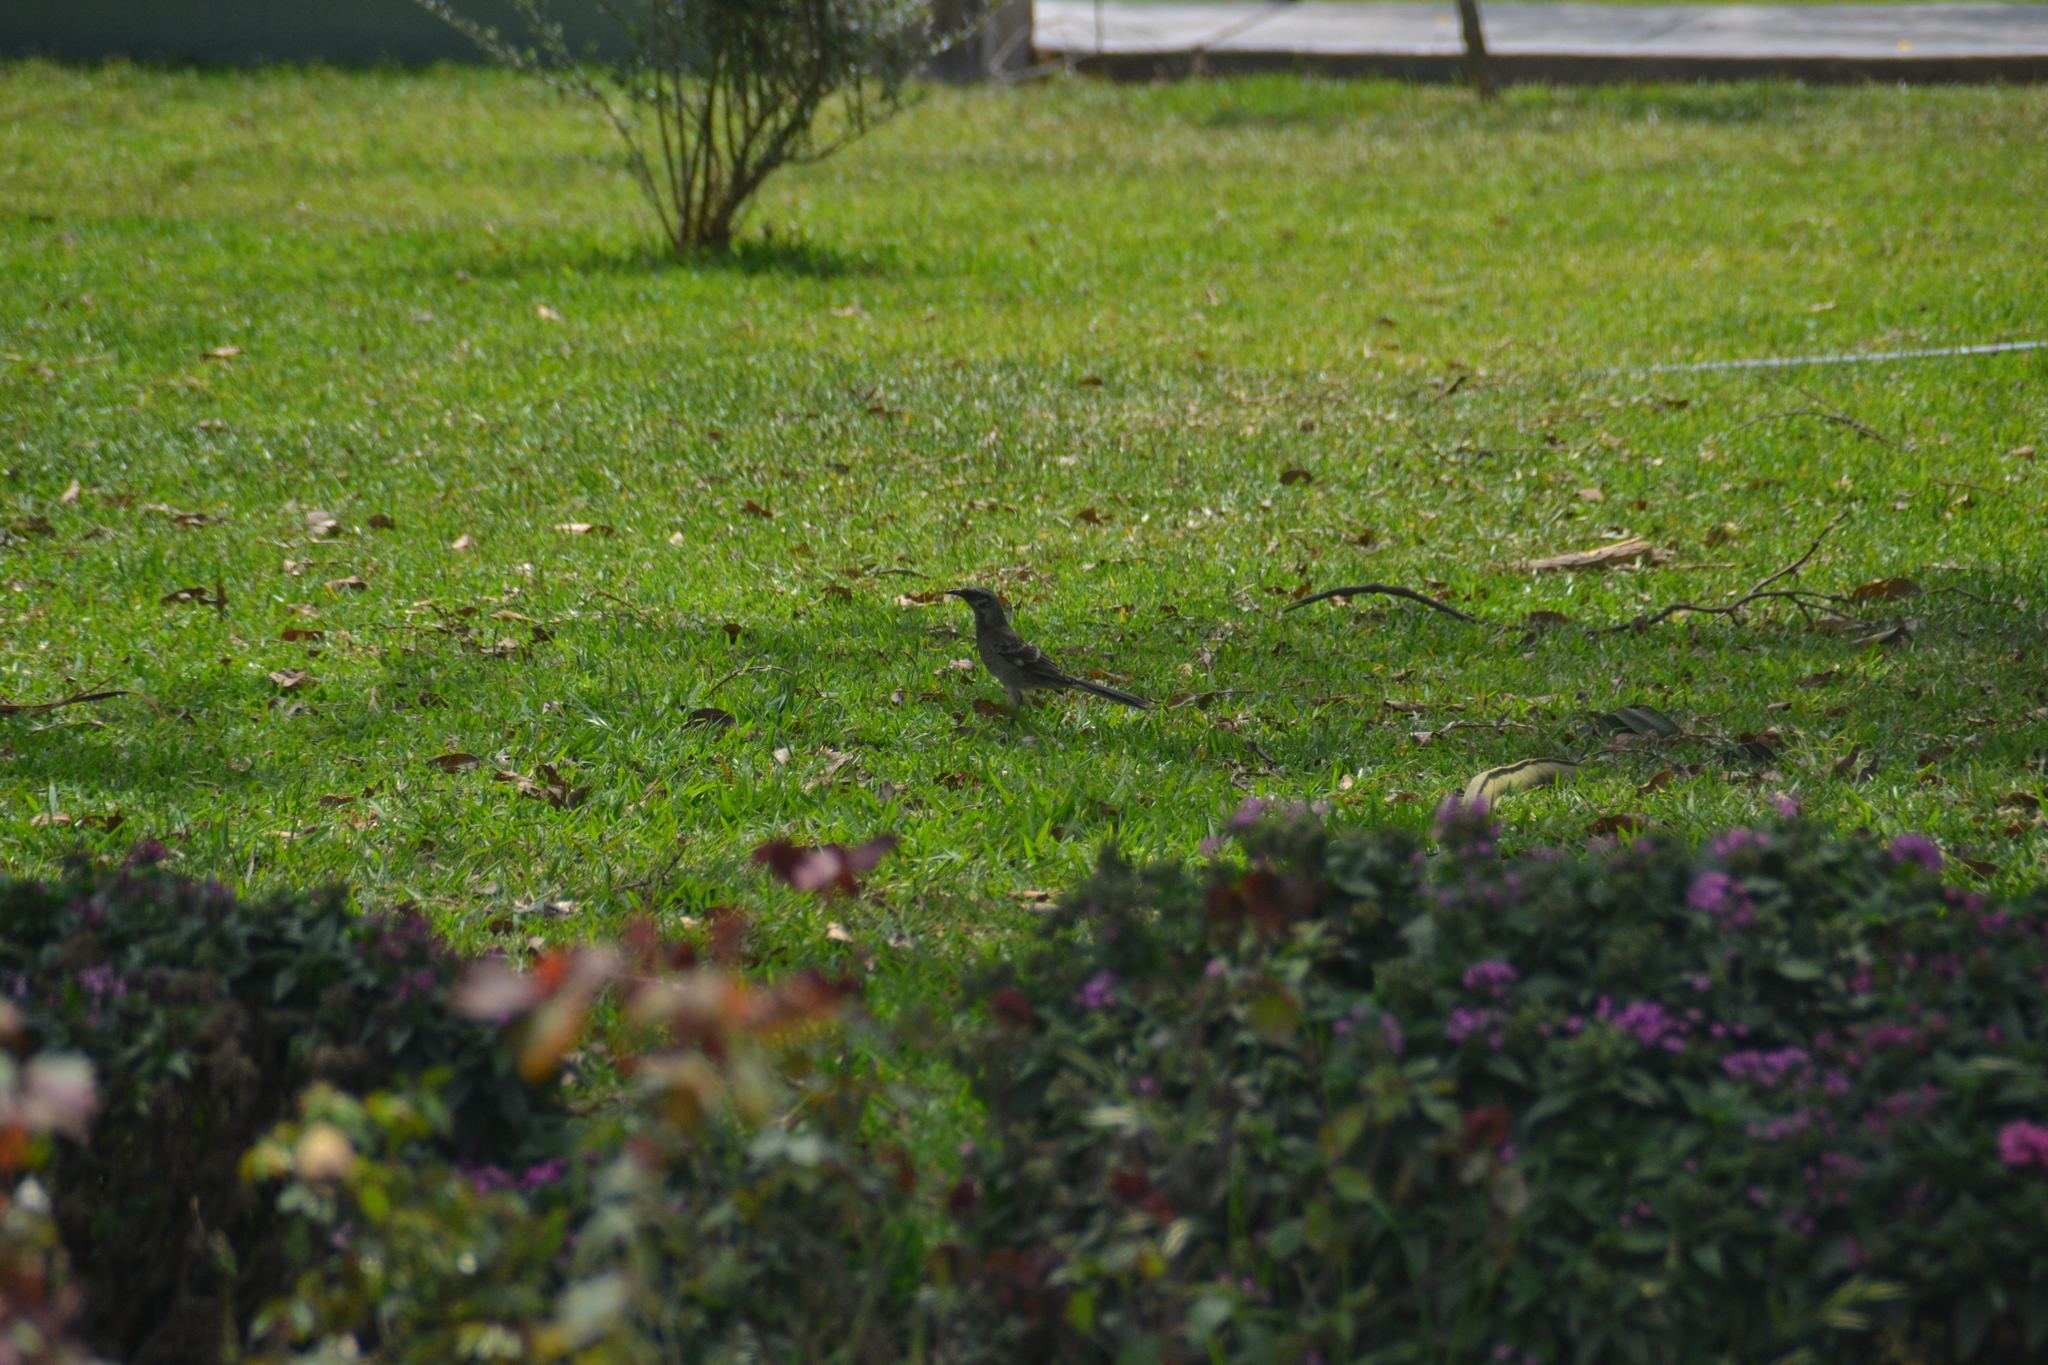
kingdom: Animalia
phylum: Chordata
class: Aves
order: Passeriformes
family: Mimidae
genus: Mimus
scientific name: Mimus longicaudatus
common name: Long-tailed mockingbird
